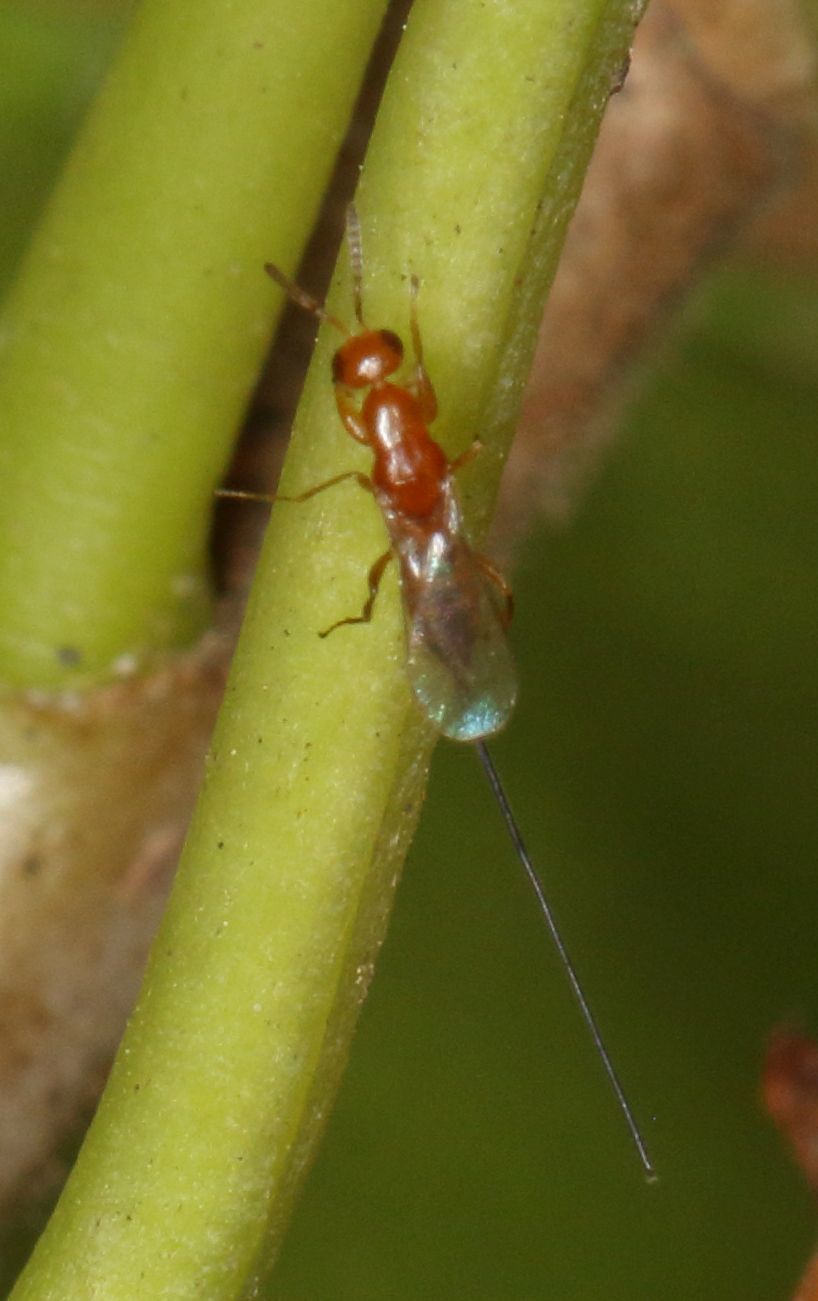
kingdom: Animalia
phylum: Arthropoda
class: Insecta
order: Hymenoptera
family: Agaonidae
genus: Watshamiella
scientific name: Watshamiella alata
